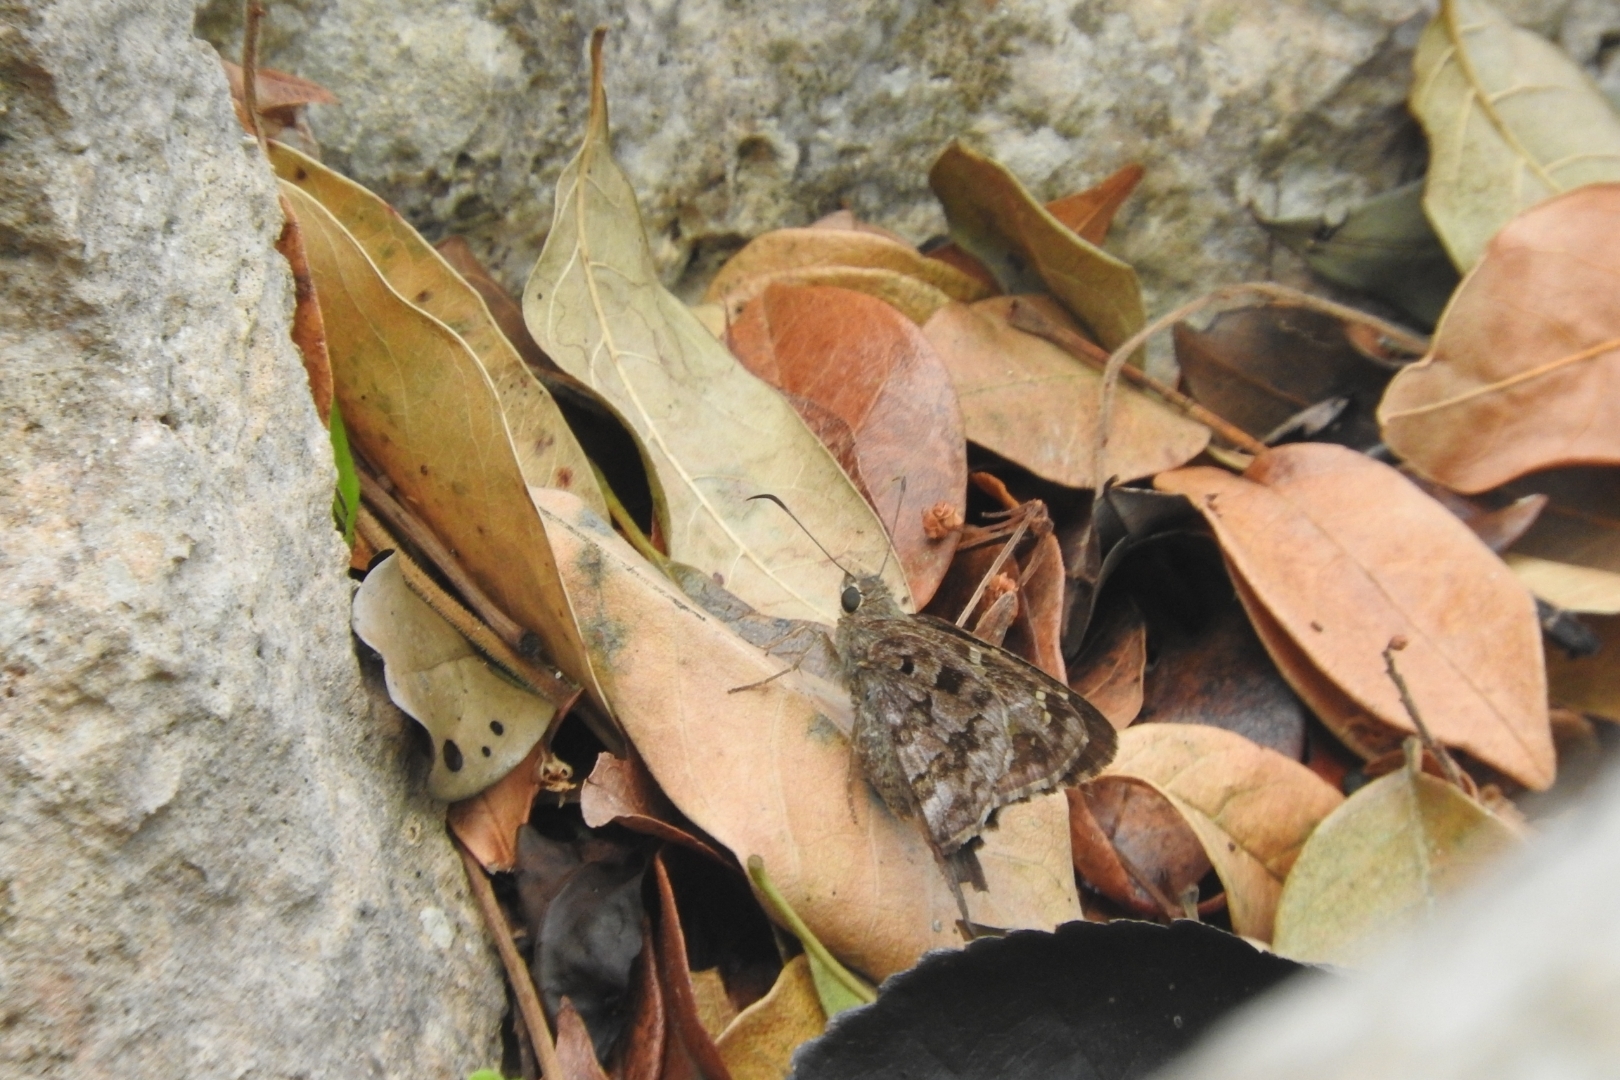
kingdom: Animalia
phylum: Arthropoda
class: Insecta
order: Lepidoptera
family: Hesperiidae
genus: Thorybes
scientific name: Thorybes
